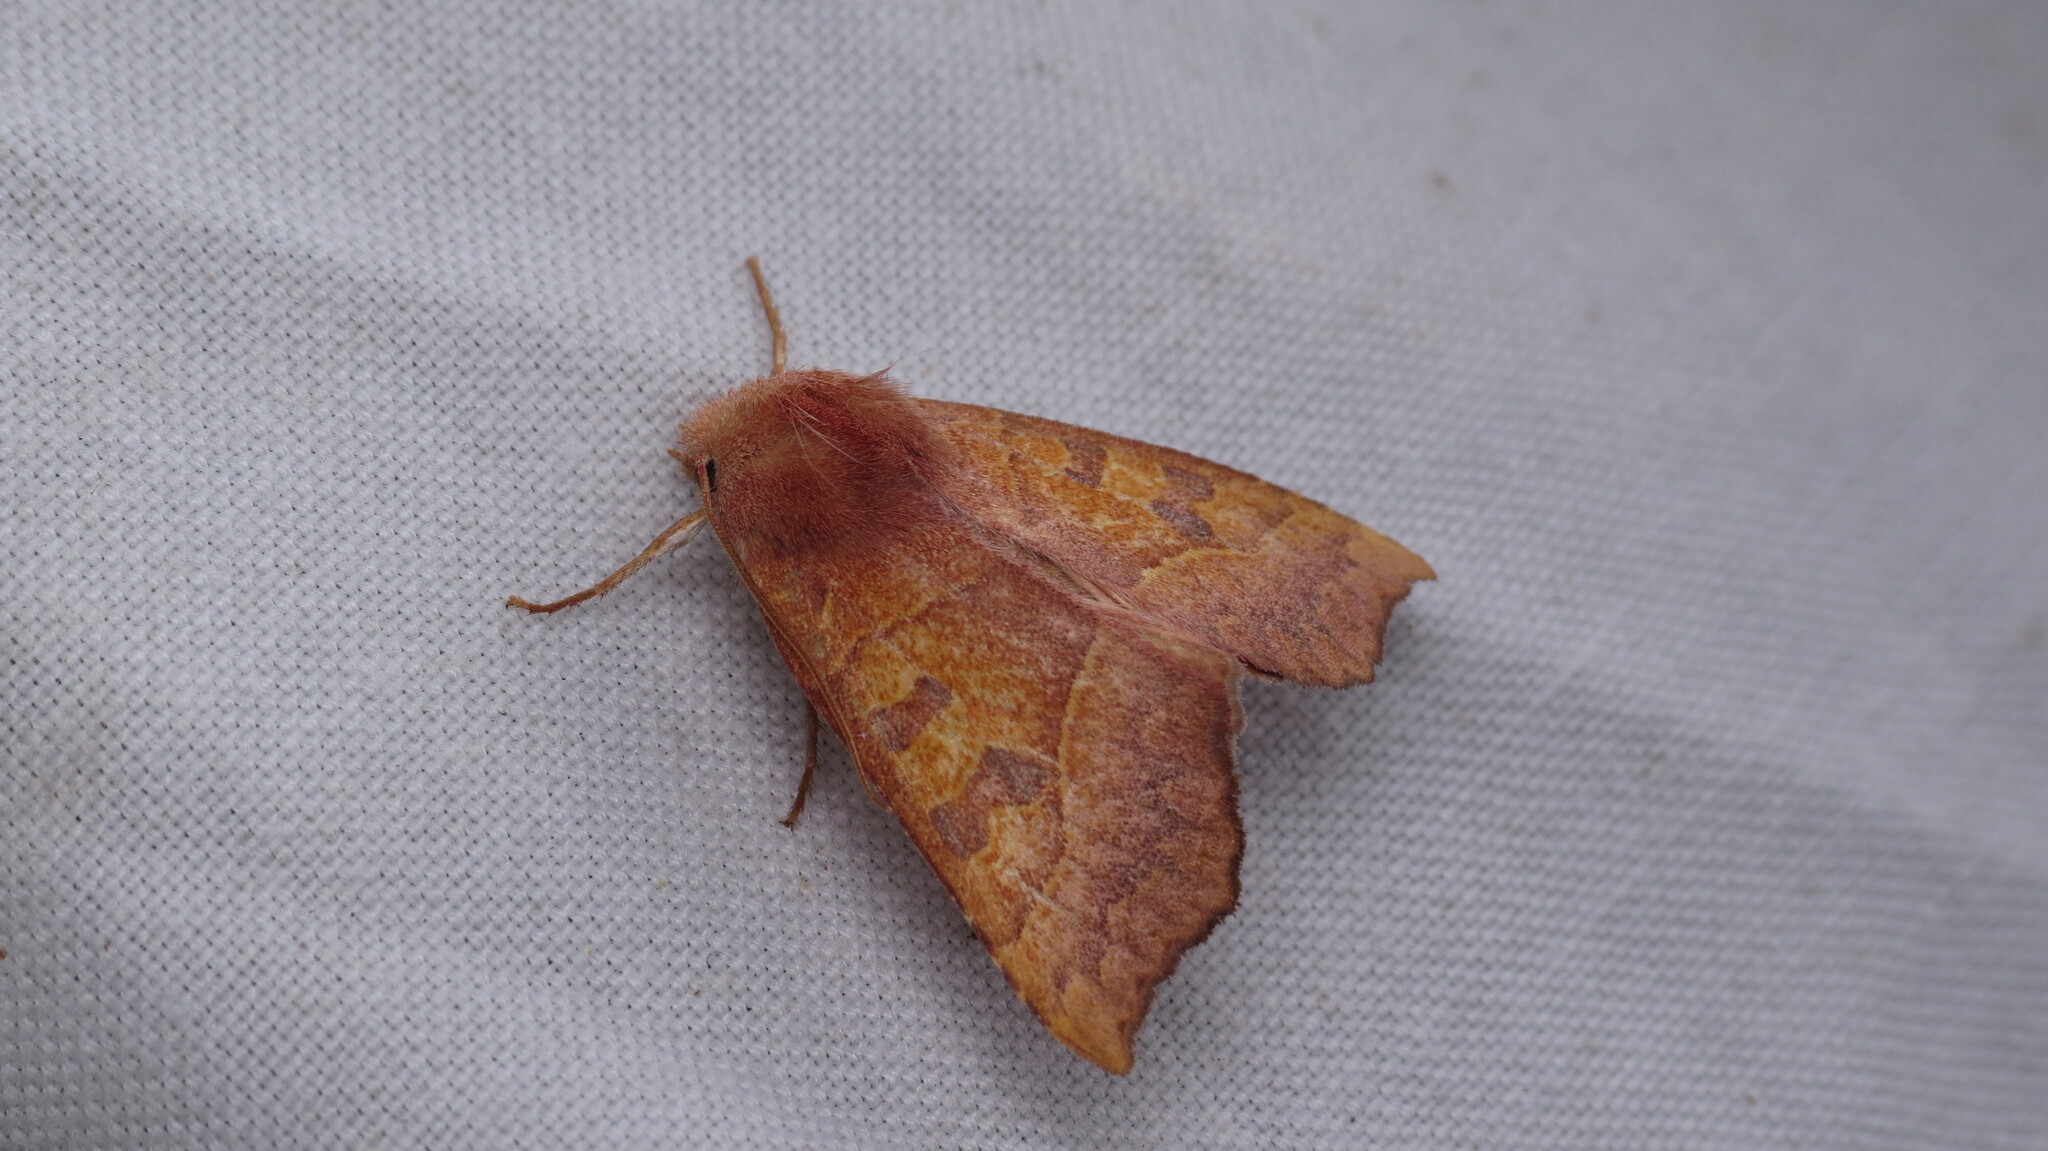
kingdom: Animalia
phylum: Arthropoda
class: Insecta
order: Lepidoptera
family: Noctuidae
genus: Eucirroedia
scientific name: Eucirroedia pampina
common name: Scalloped sallow
